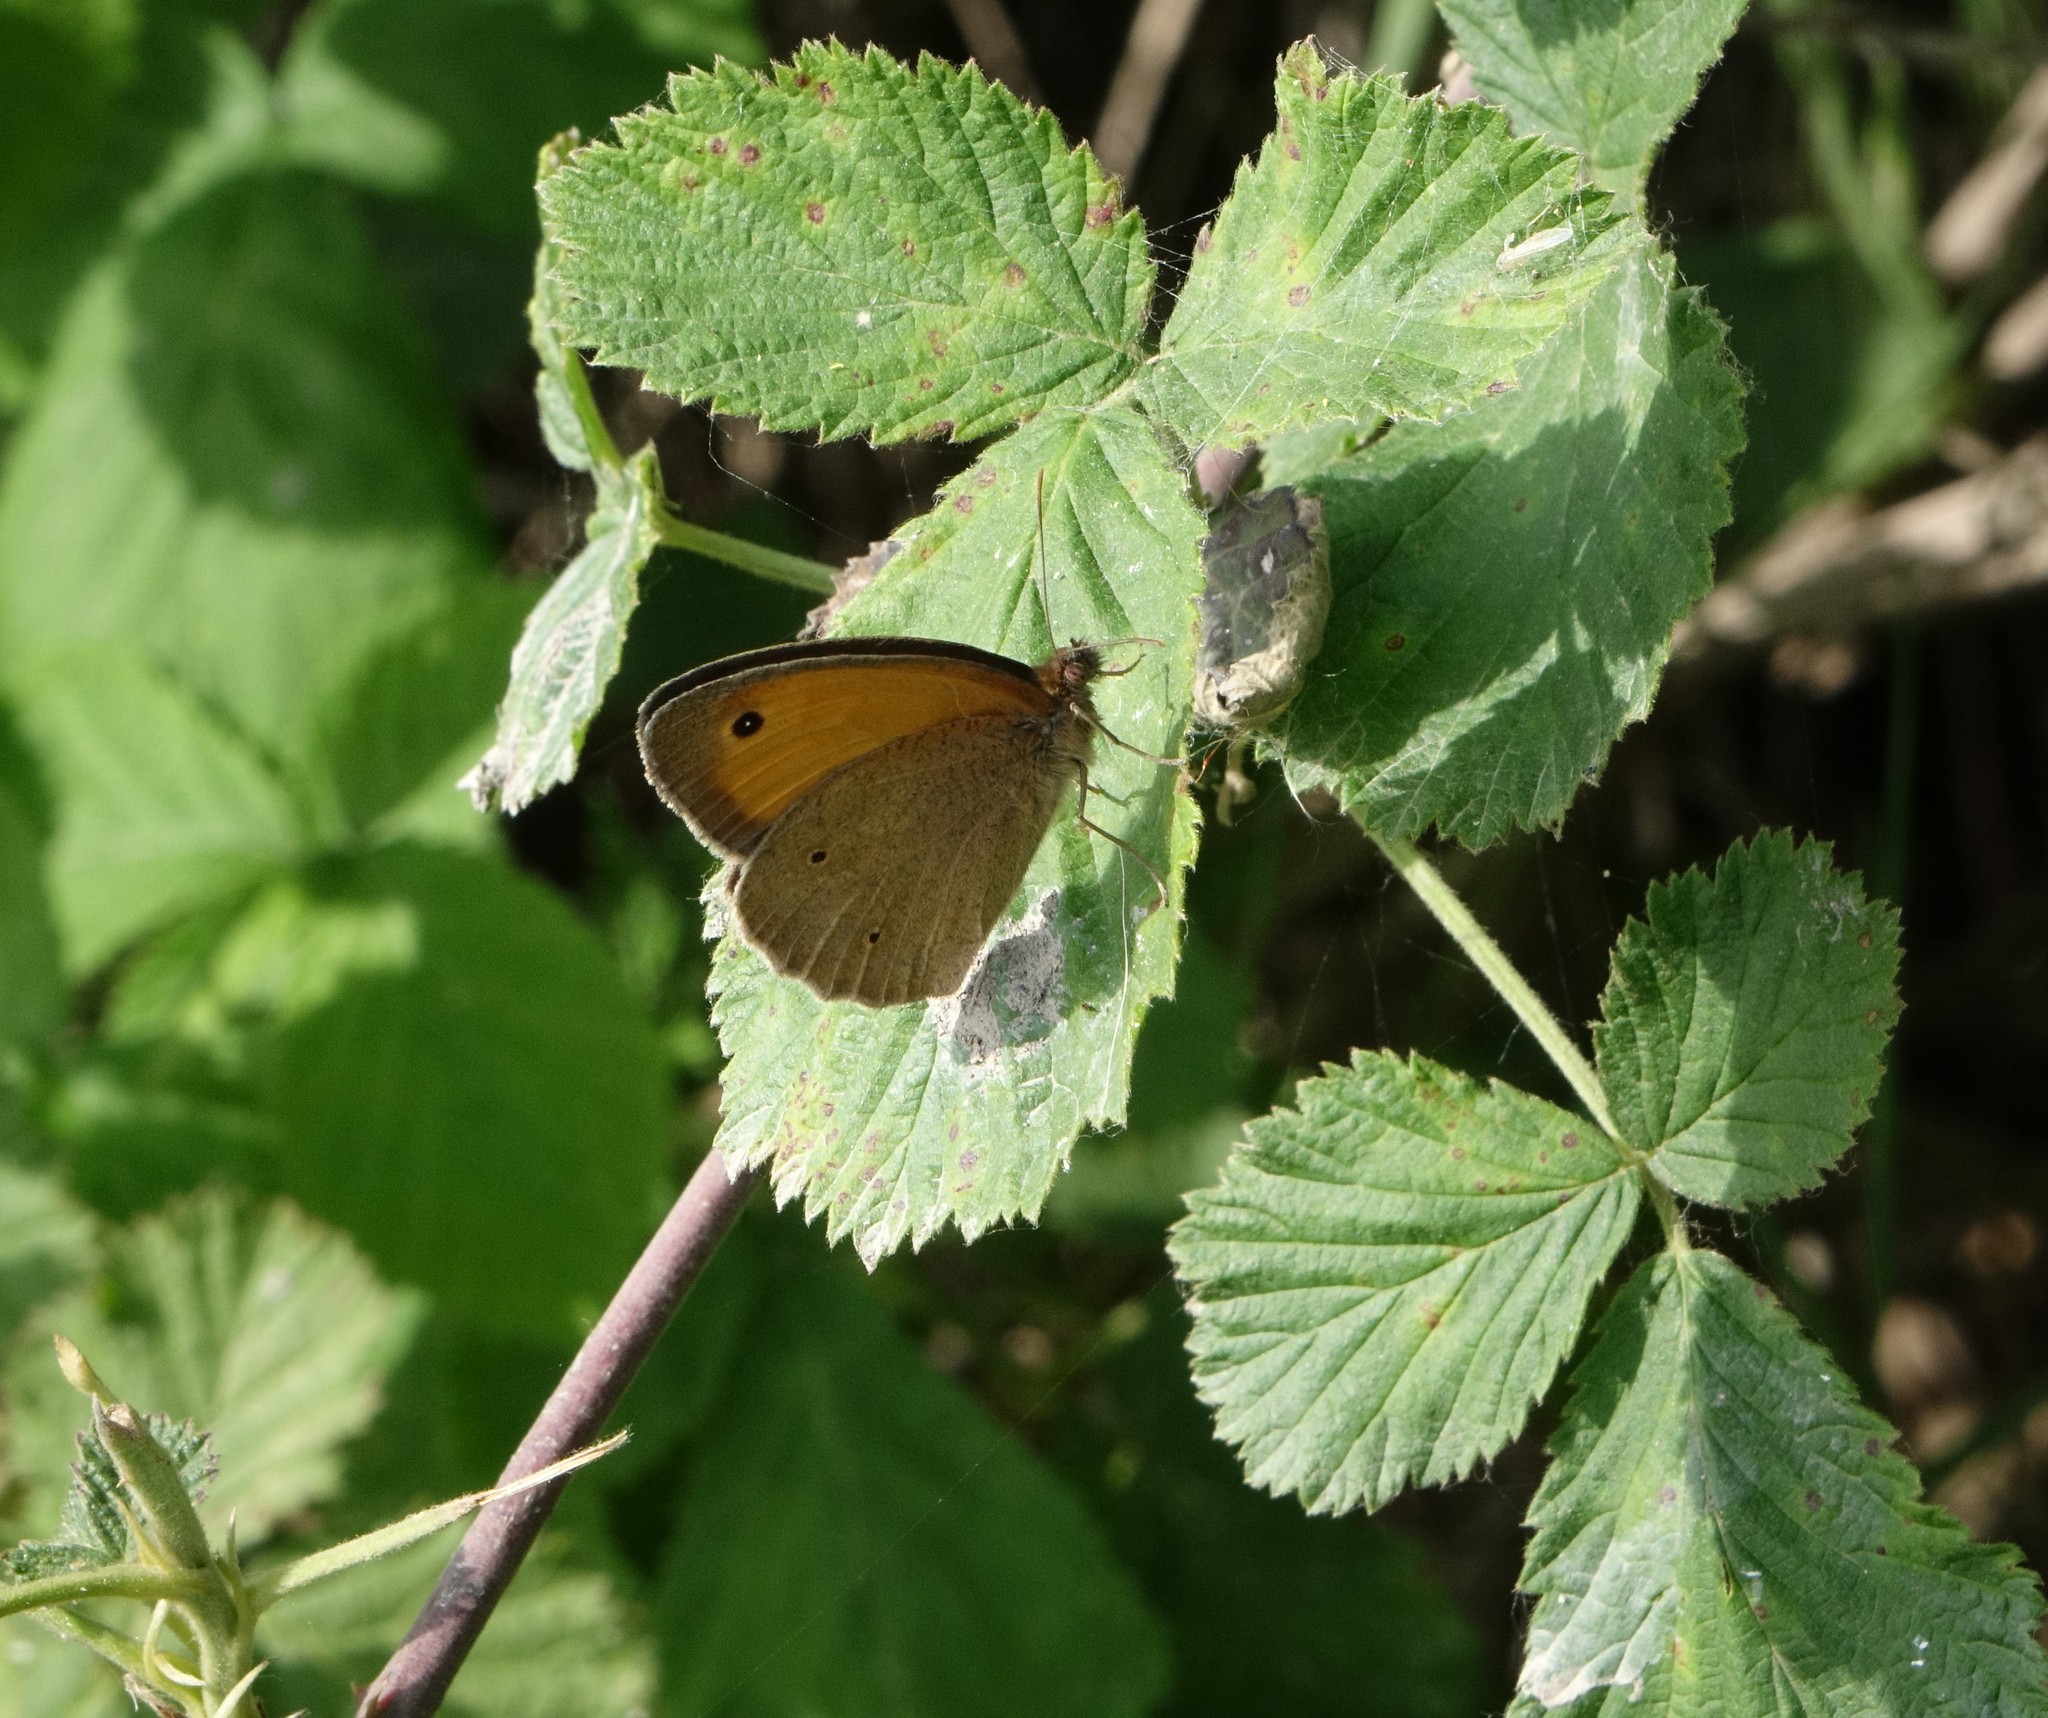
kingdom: Animalia
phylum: Arthropoda
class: Insecta
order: Lepidoptera
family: Nymphalidae
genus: Maniola
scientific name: Maniola jurtina
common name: Meadow brown
